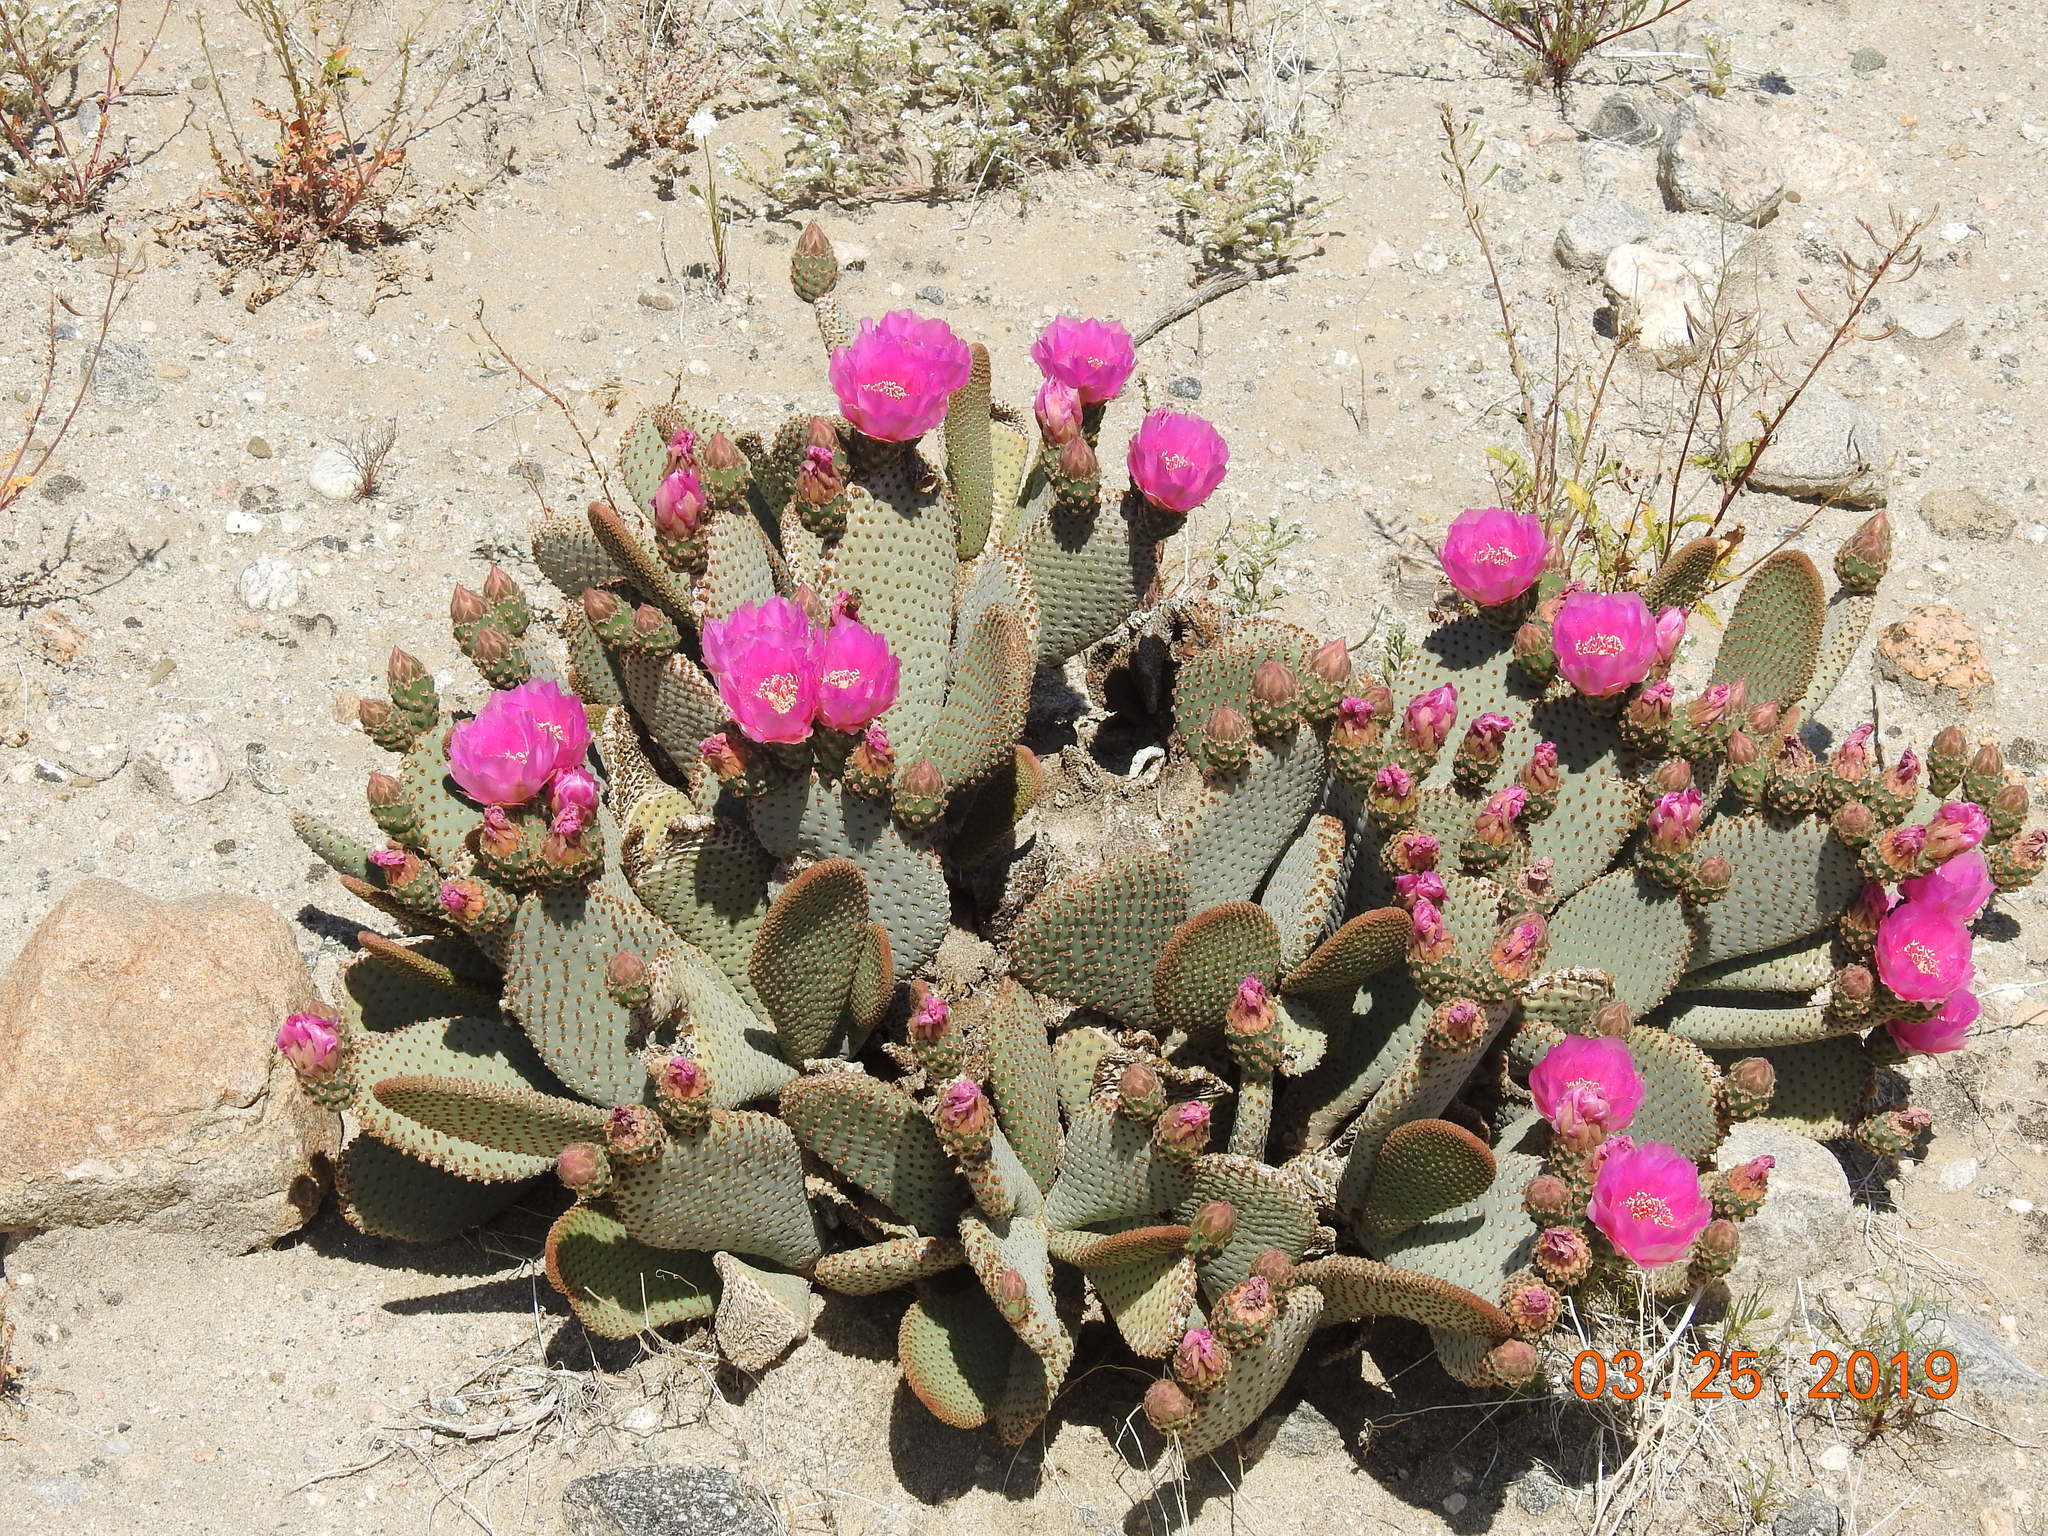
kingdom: Plantae
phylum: Tracheophyta
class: Magnoliopsida
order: Caryophyllales
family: Cactaceae
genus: Opuntia
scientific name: Opuntia basilaris
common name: Beavertail prickly-pear
